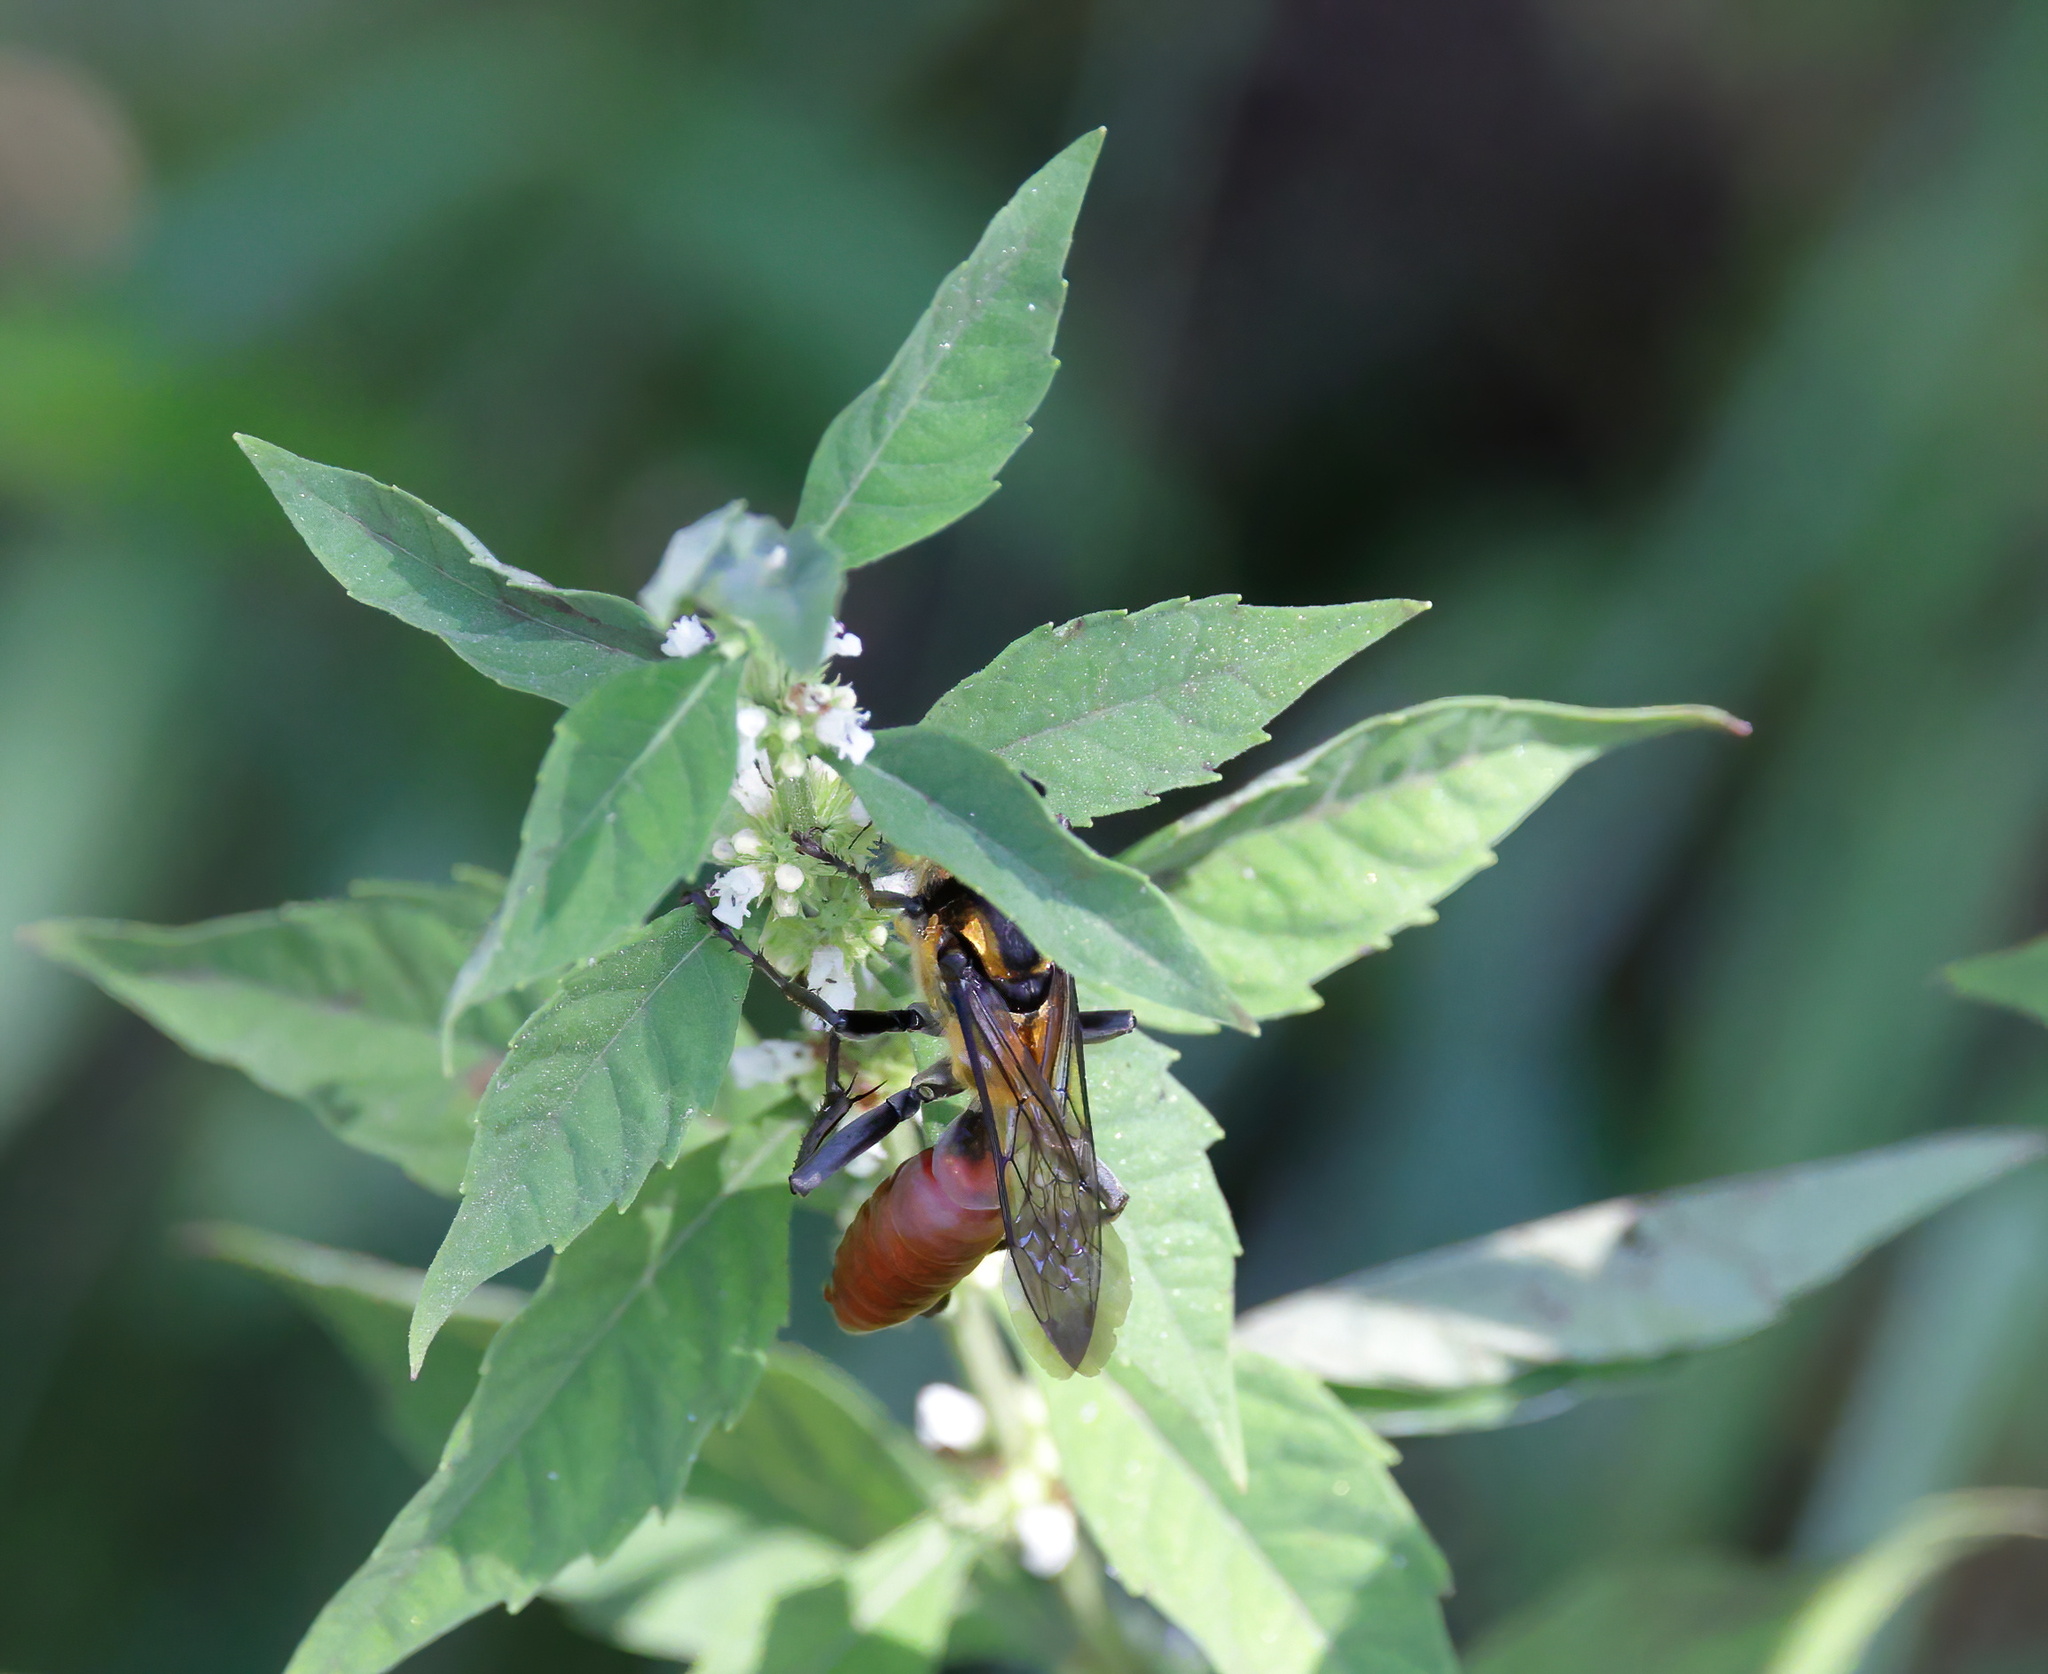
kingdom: Animalia
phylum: Arthropoda
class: Insecta
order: Hymenoptera
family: Sphecidae
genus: Sphex
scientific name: Sphex habenus
